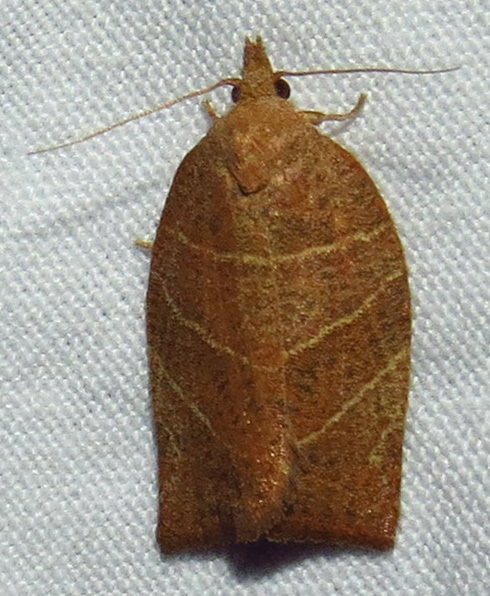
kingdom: Animalia
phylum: Arthropoda
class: Insecta
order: Lepidoptera
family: Tortricidae
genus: Pandemis
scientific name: Pandemis limitata
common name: Three-lined leafroller moth
